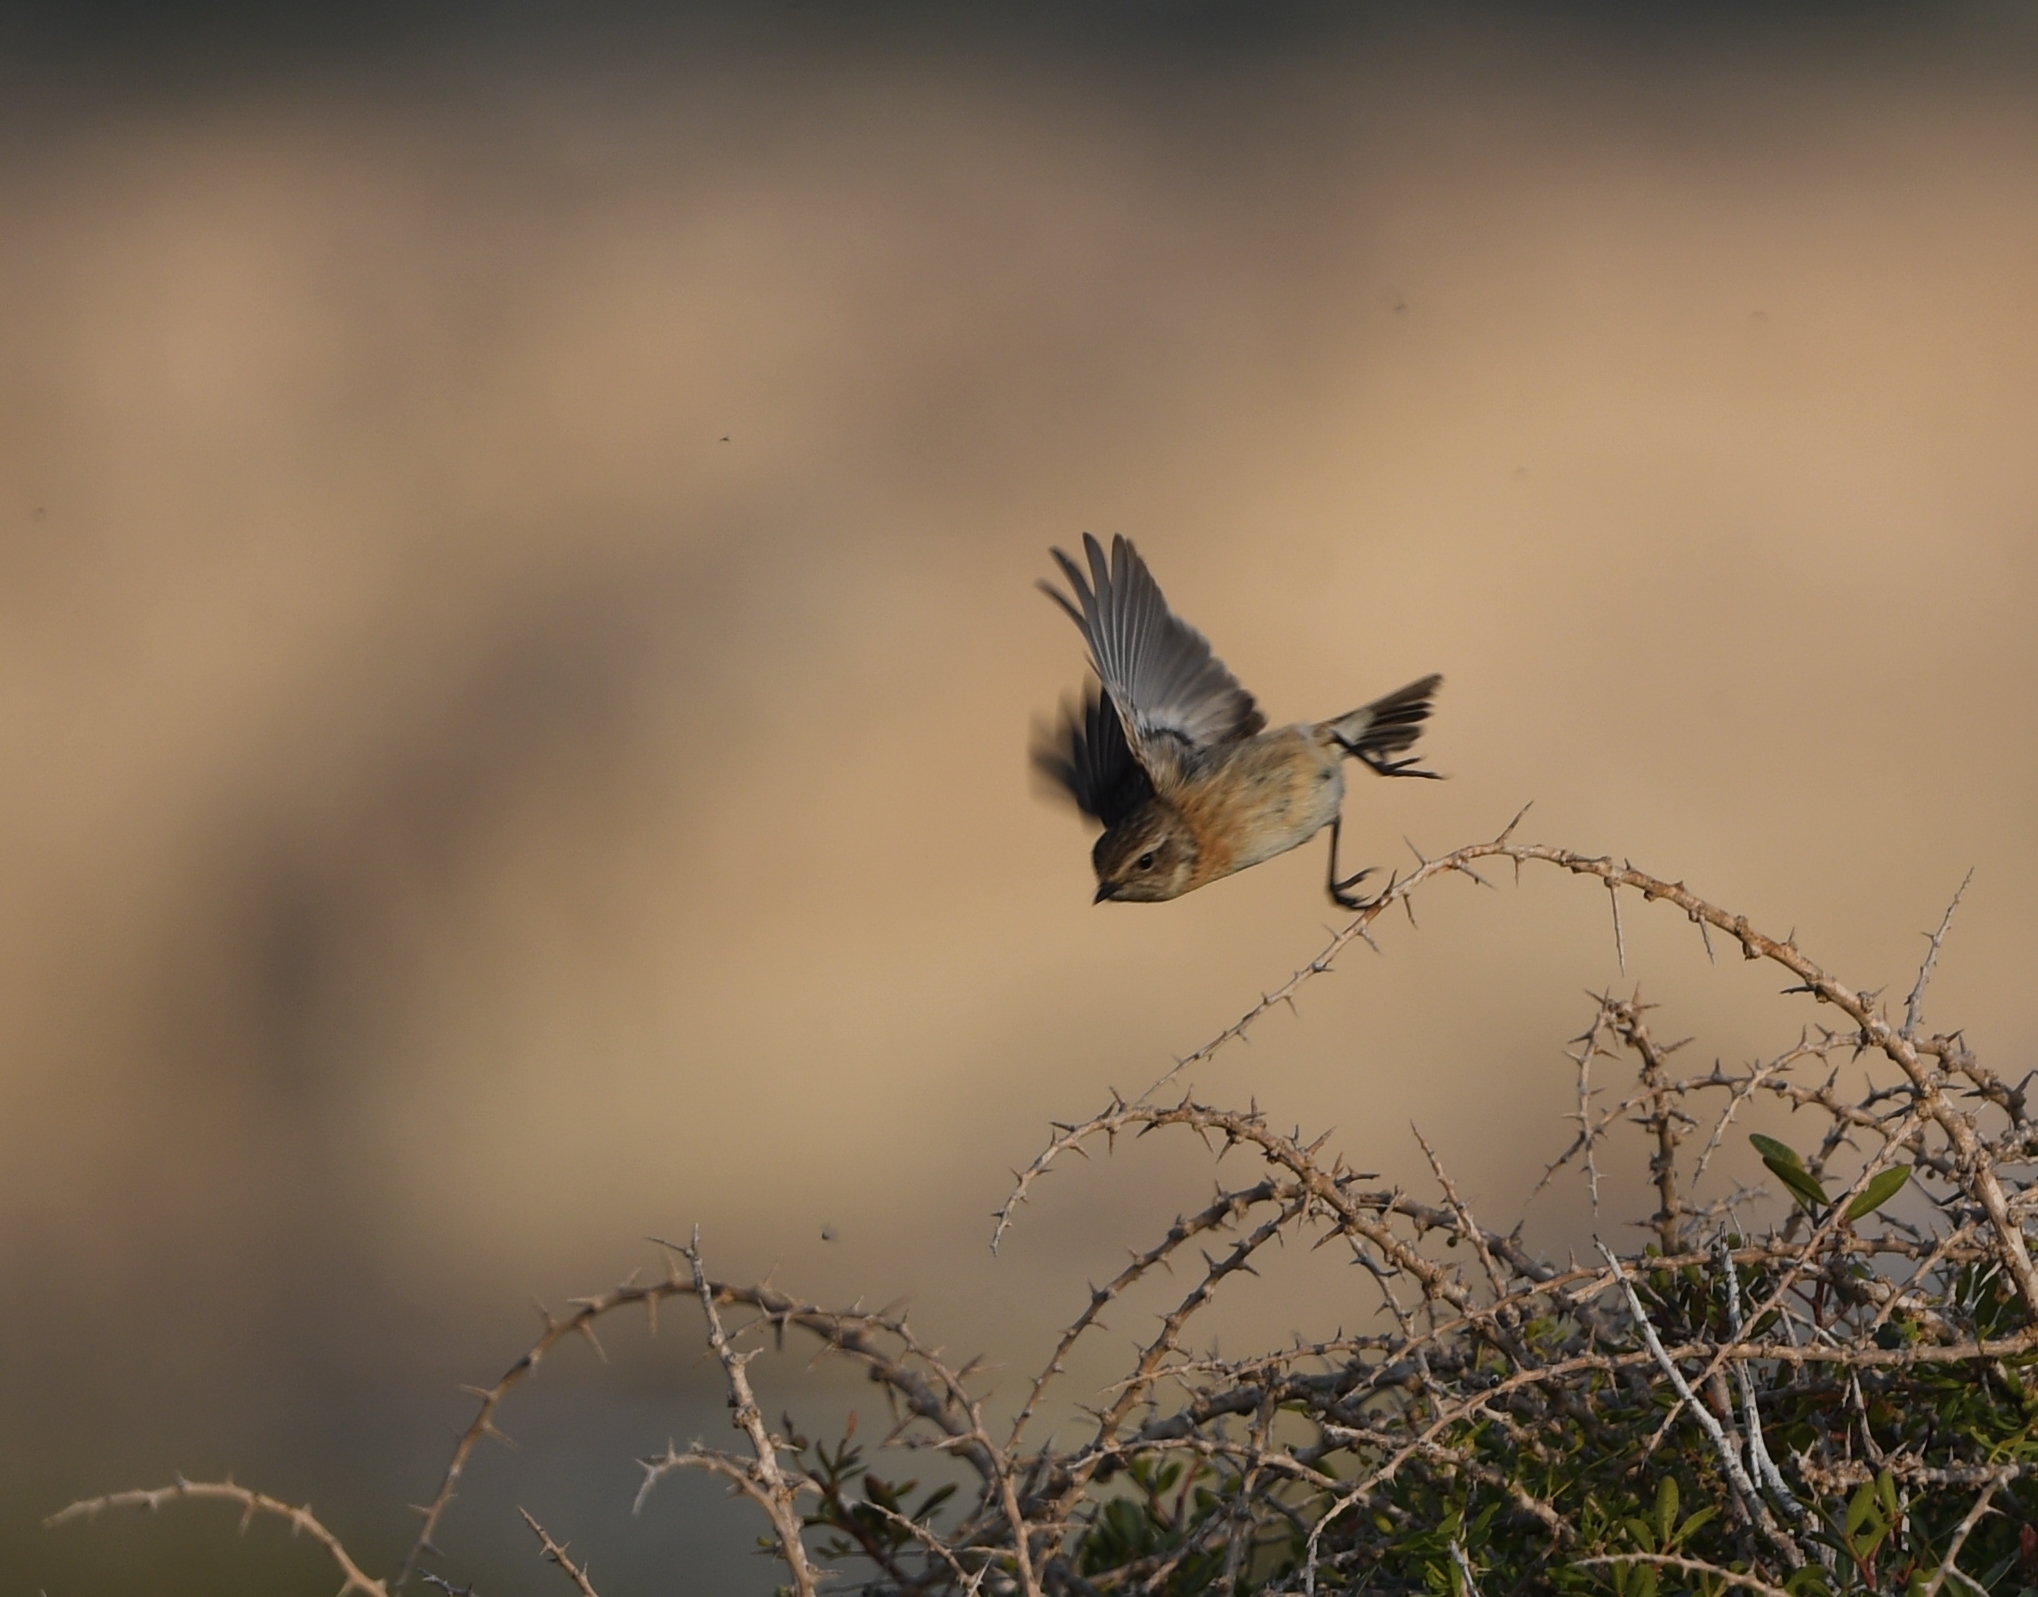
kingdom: Animalia
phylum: Chordata
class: Aves
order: Passeriformes
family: Muscicapidae
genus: Saxicola
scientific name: Saxicola rubicola
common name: European stonechat
